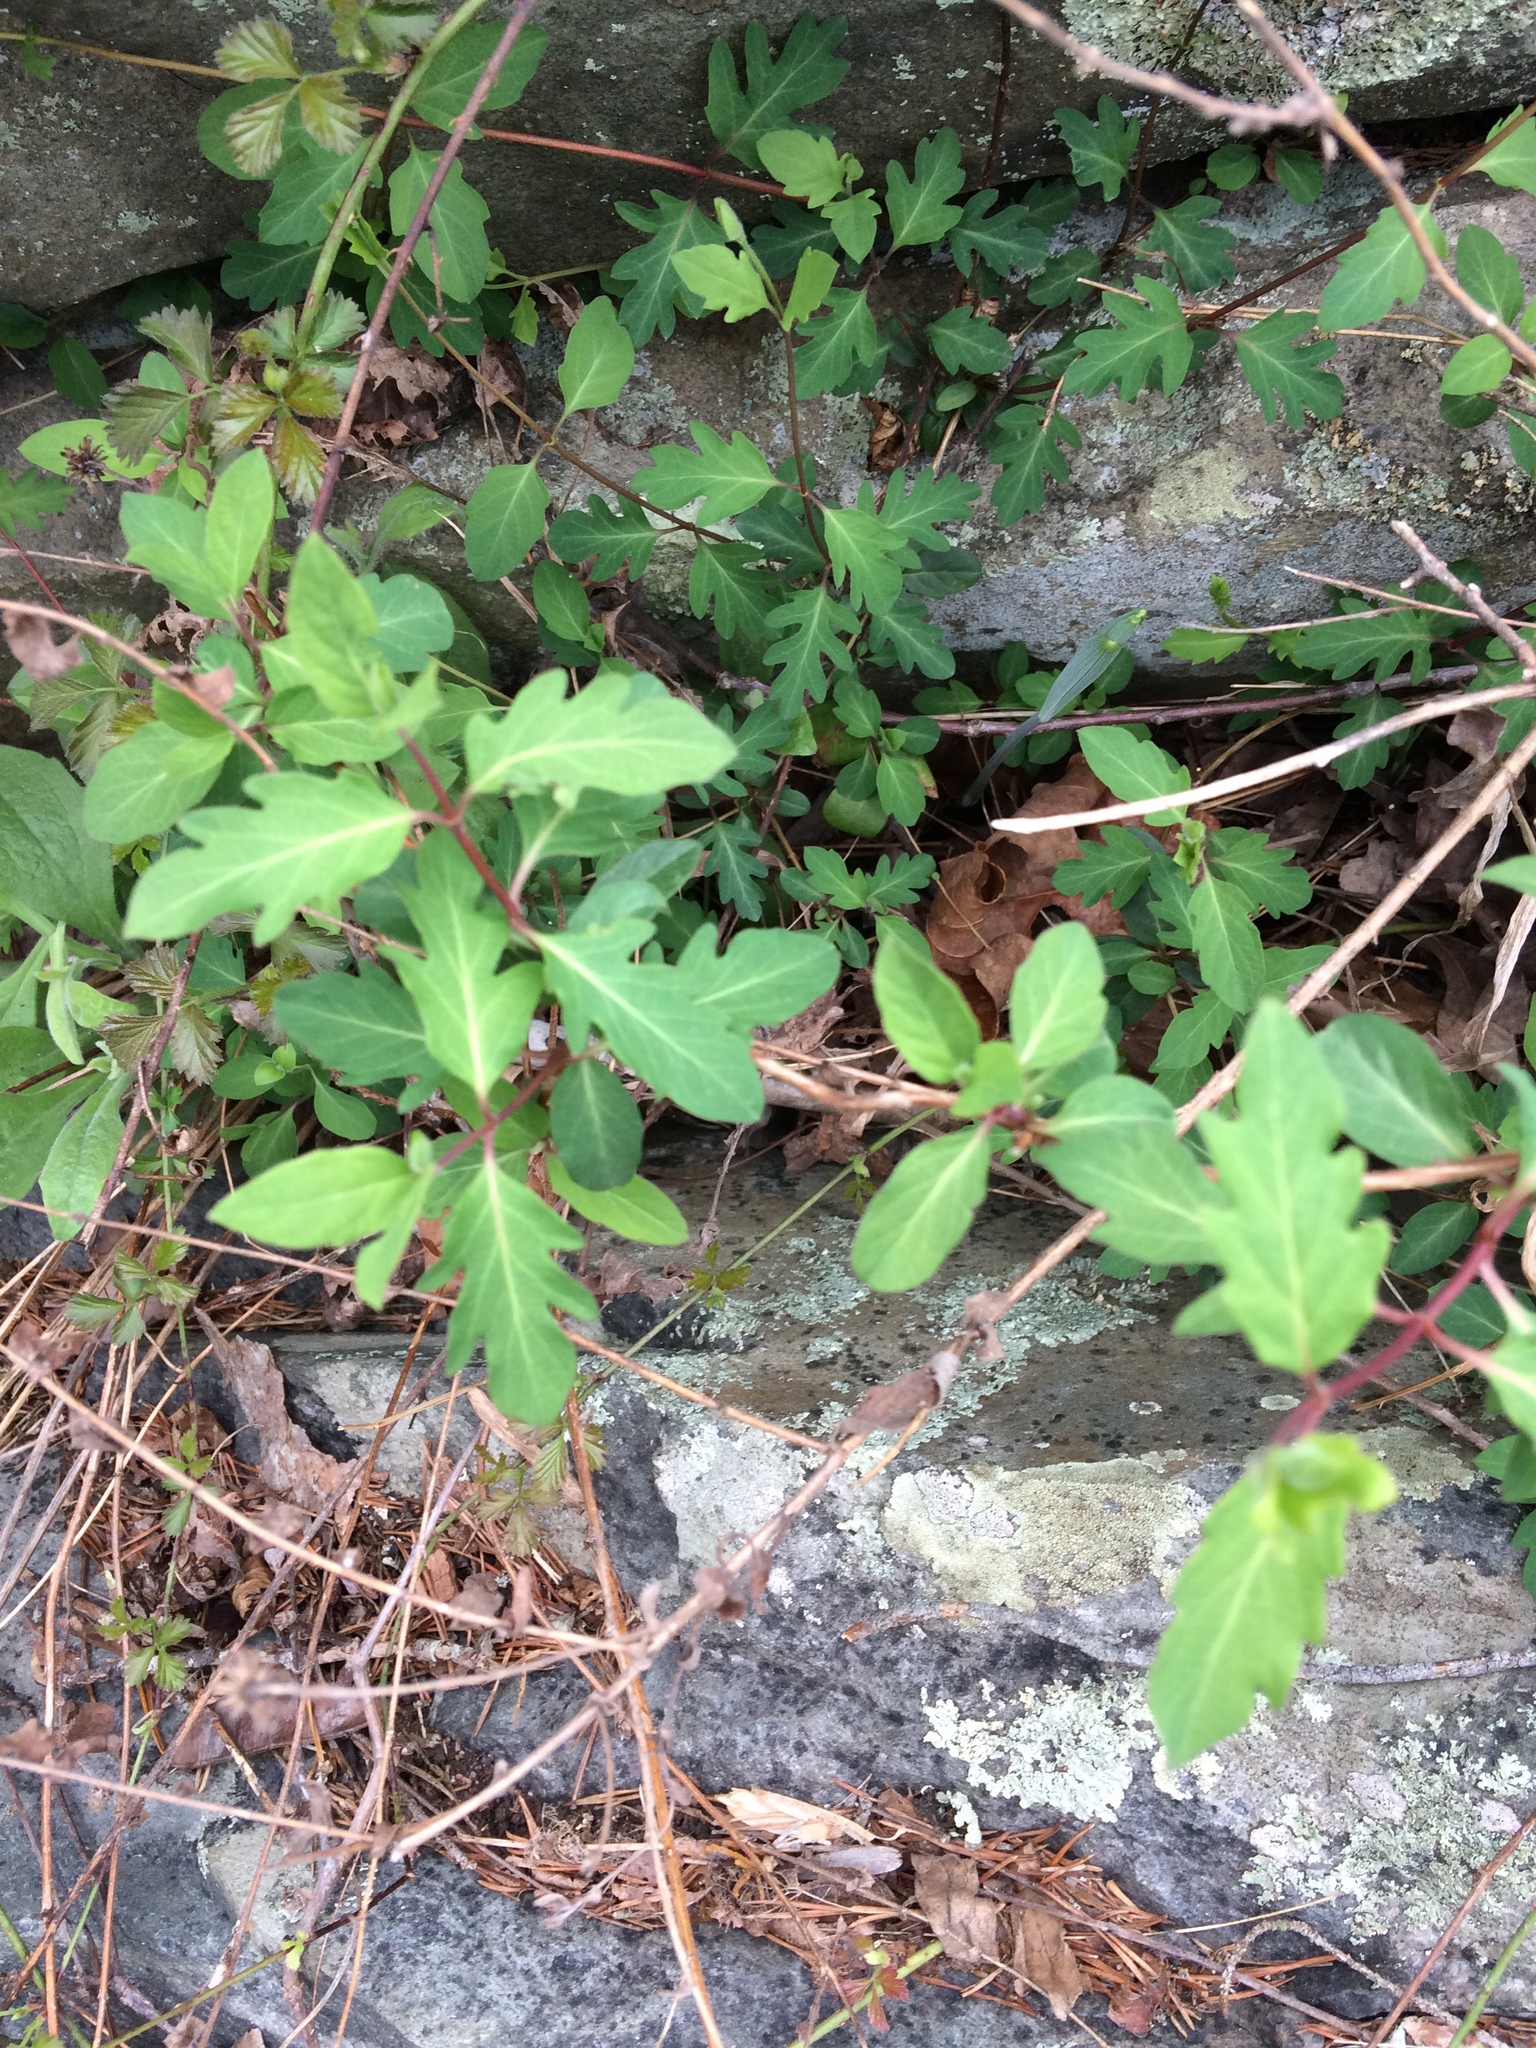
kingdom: Plantae
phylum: Tracheophyta
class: Magnoliopsida
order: Dipsacales
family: Caprifoliaceae
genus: Lonicera
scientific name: Lonicera japonica
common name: Japanese honeysuckle
